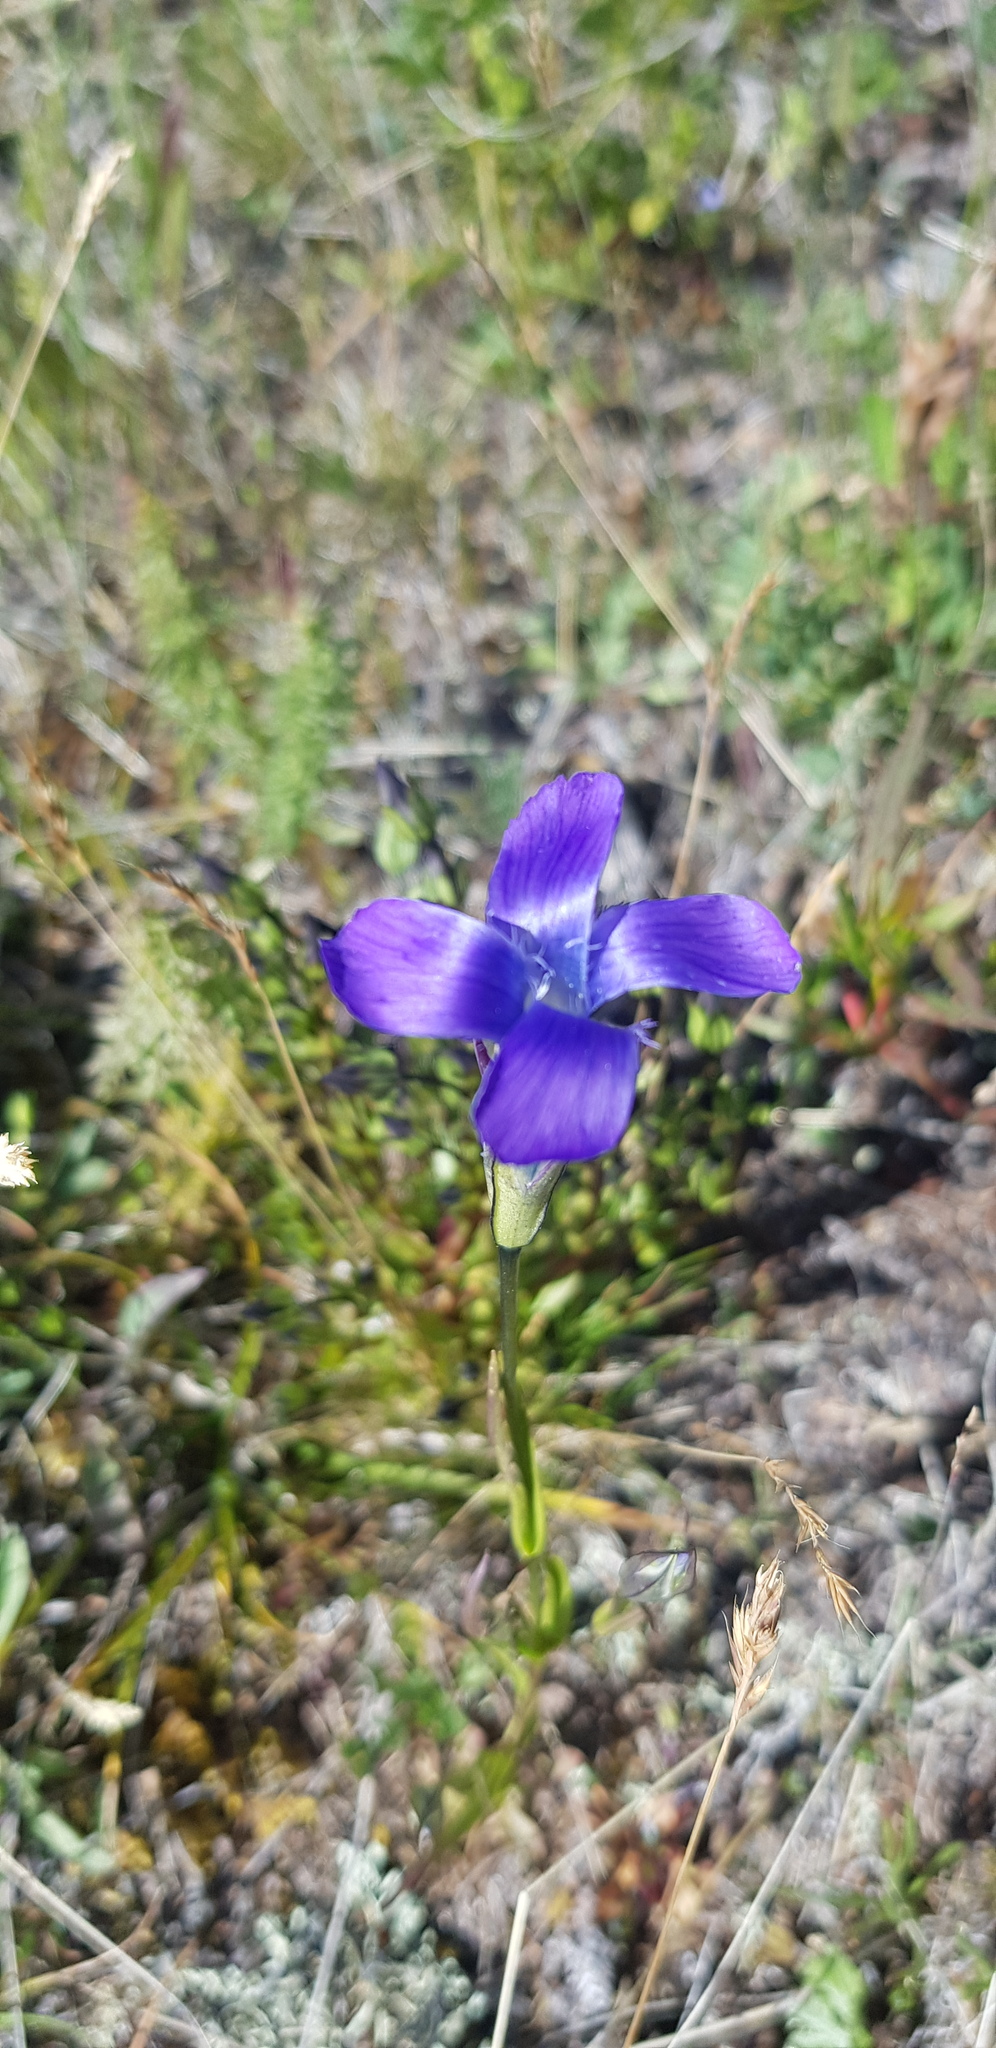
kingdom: Plantae
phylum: Tracheophyta
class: Magnoliopsida
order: Gentianales
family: Gentianaceae
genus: Gentianopsis
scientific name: Gentianopsis barbata
